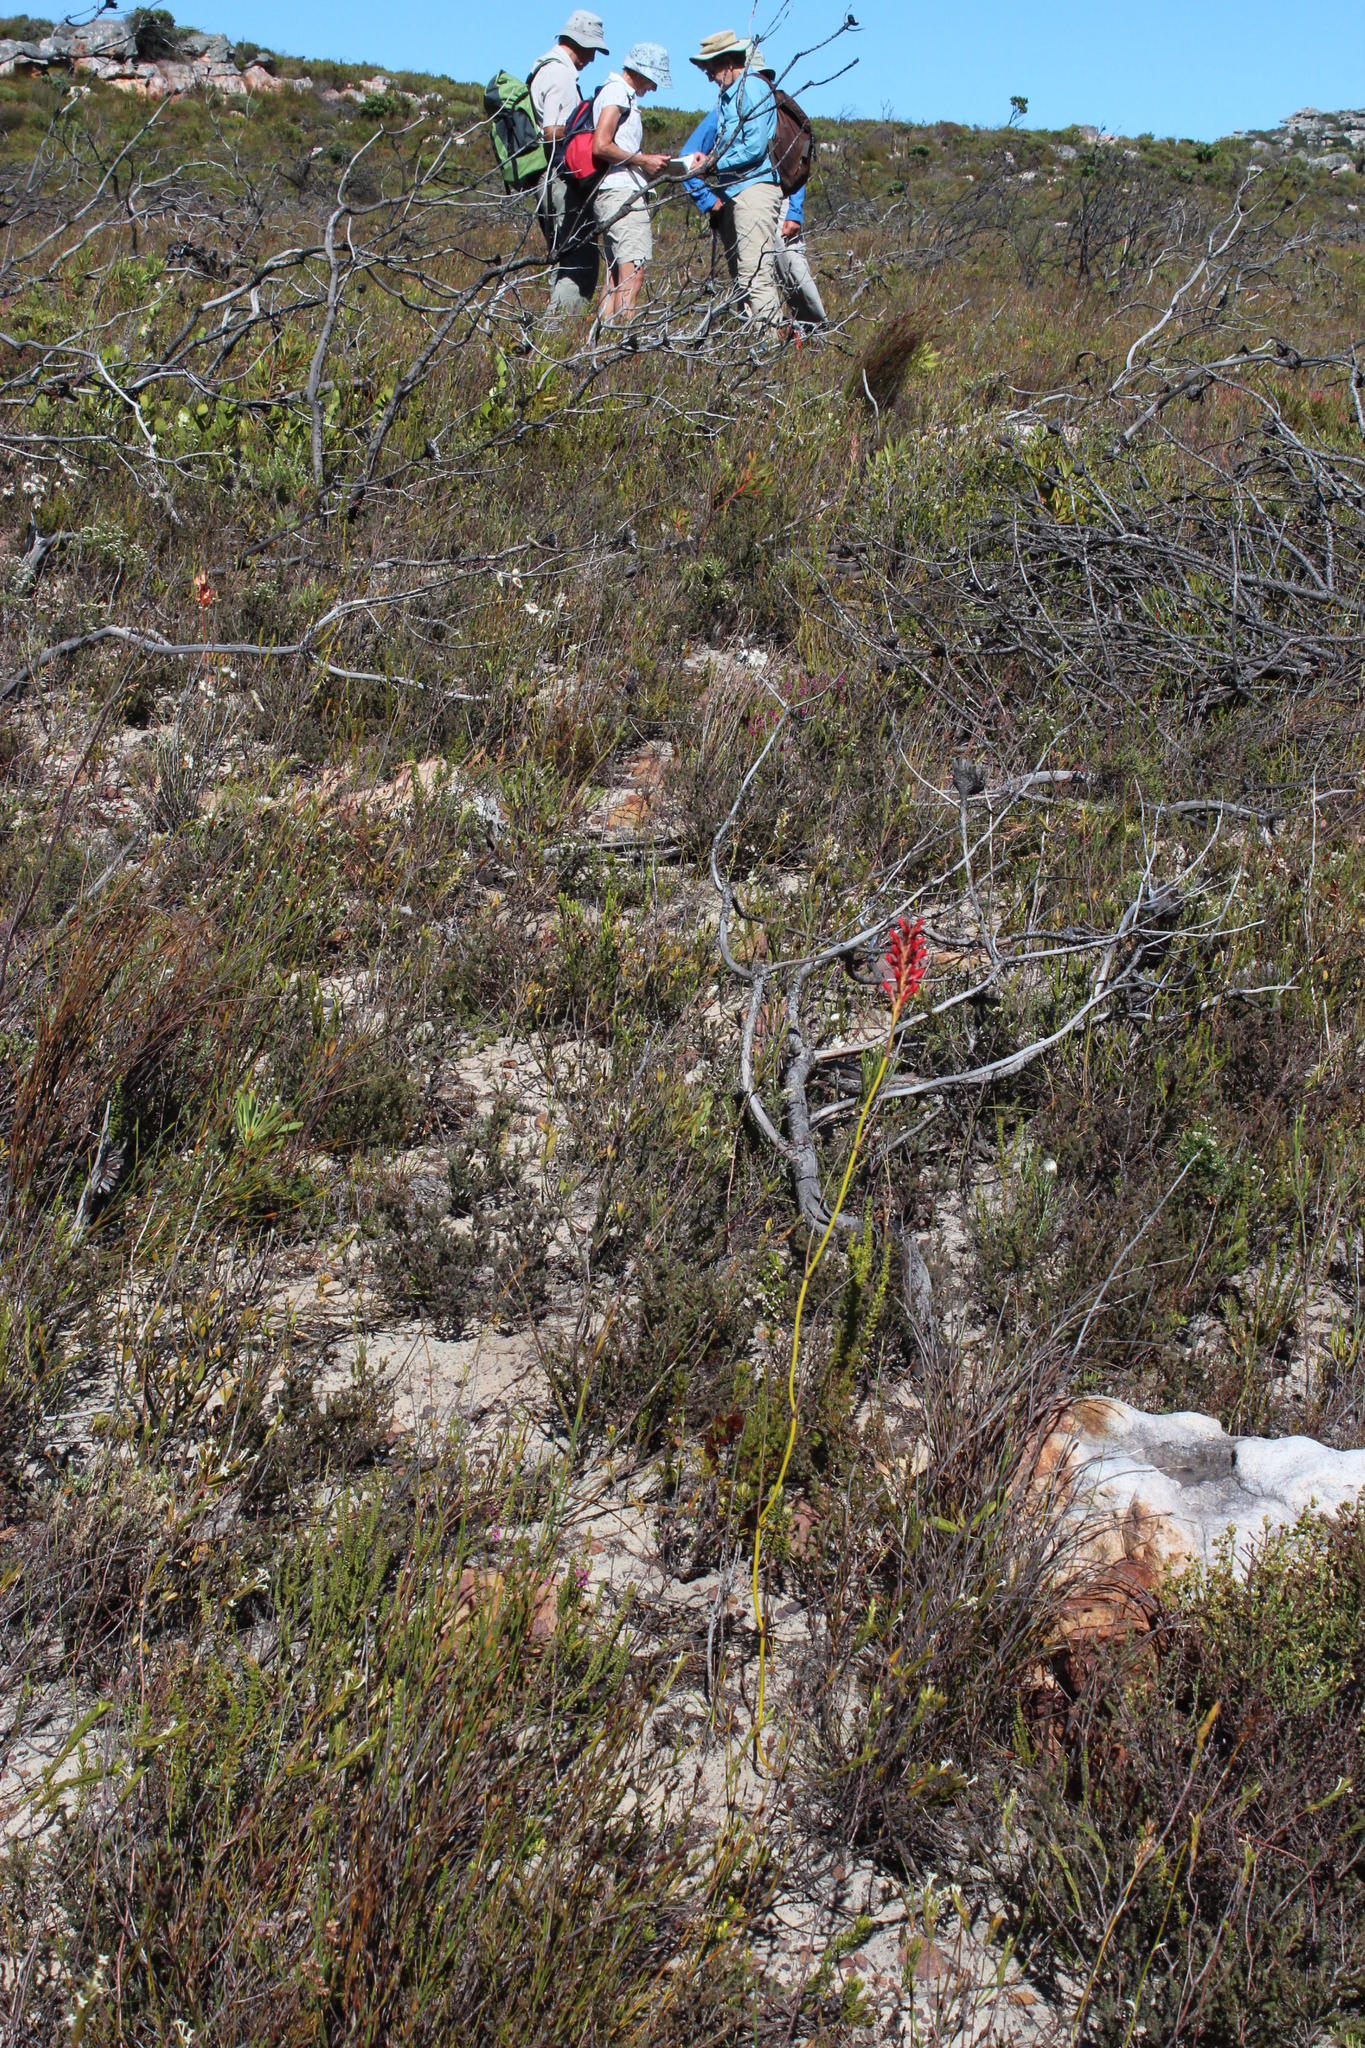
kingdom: Plantae
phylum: Tracheophyta
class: Liliopsida
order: Asparagales
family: Iridaceae
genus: Tritoniopsis
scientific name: Tritoniopsis triticea
